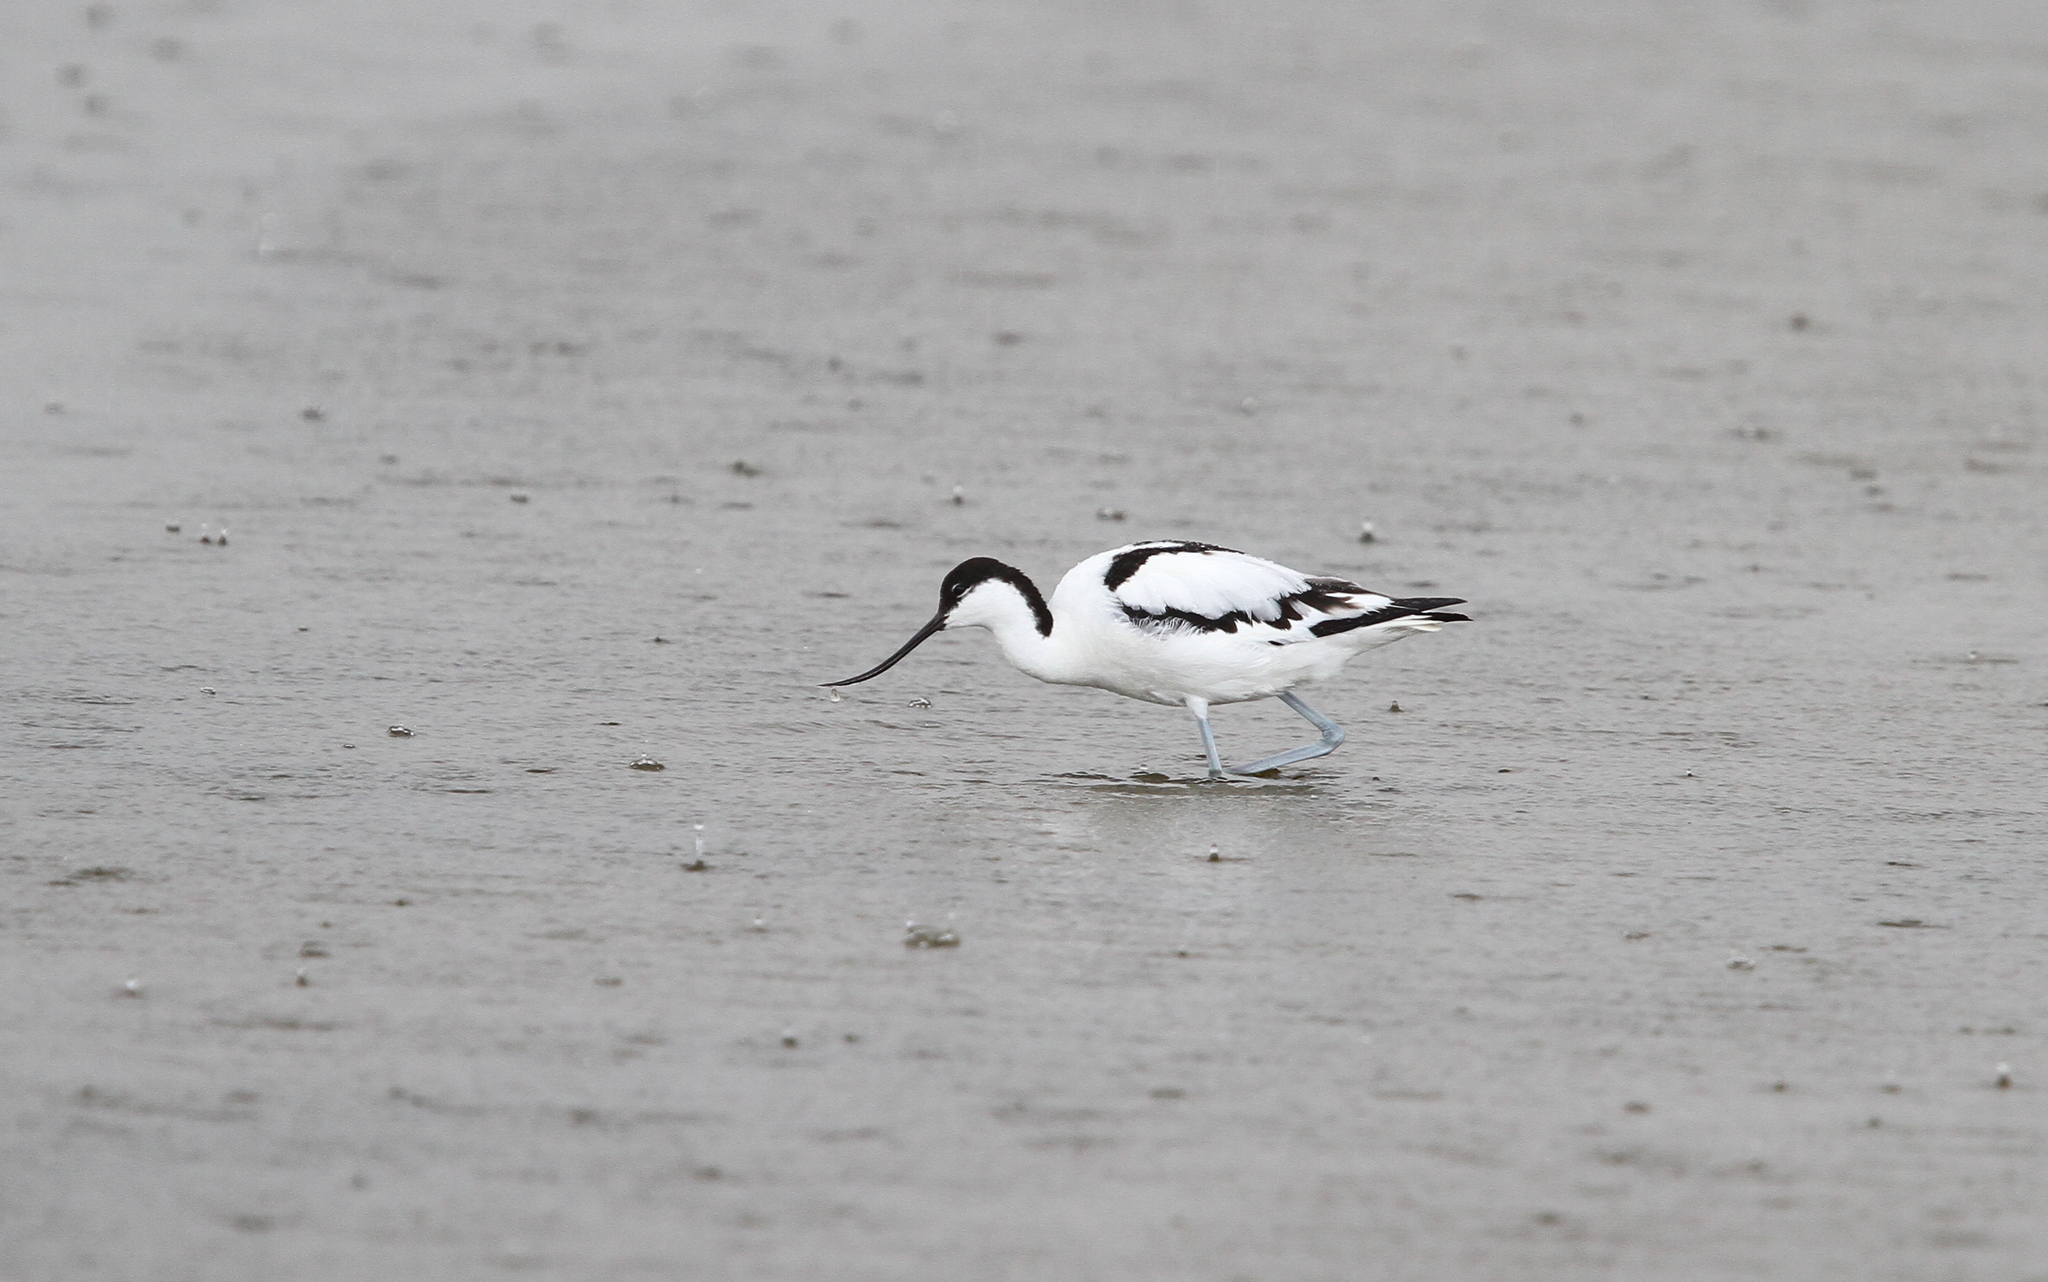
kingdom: Animalia
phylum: Chordata
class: Aves
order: Charadriiformes
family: Recurvirostridae
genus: Recurvirostra
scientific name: Recurvirostra avosetta
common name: Pied avocet
